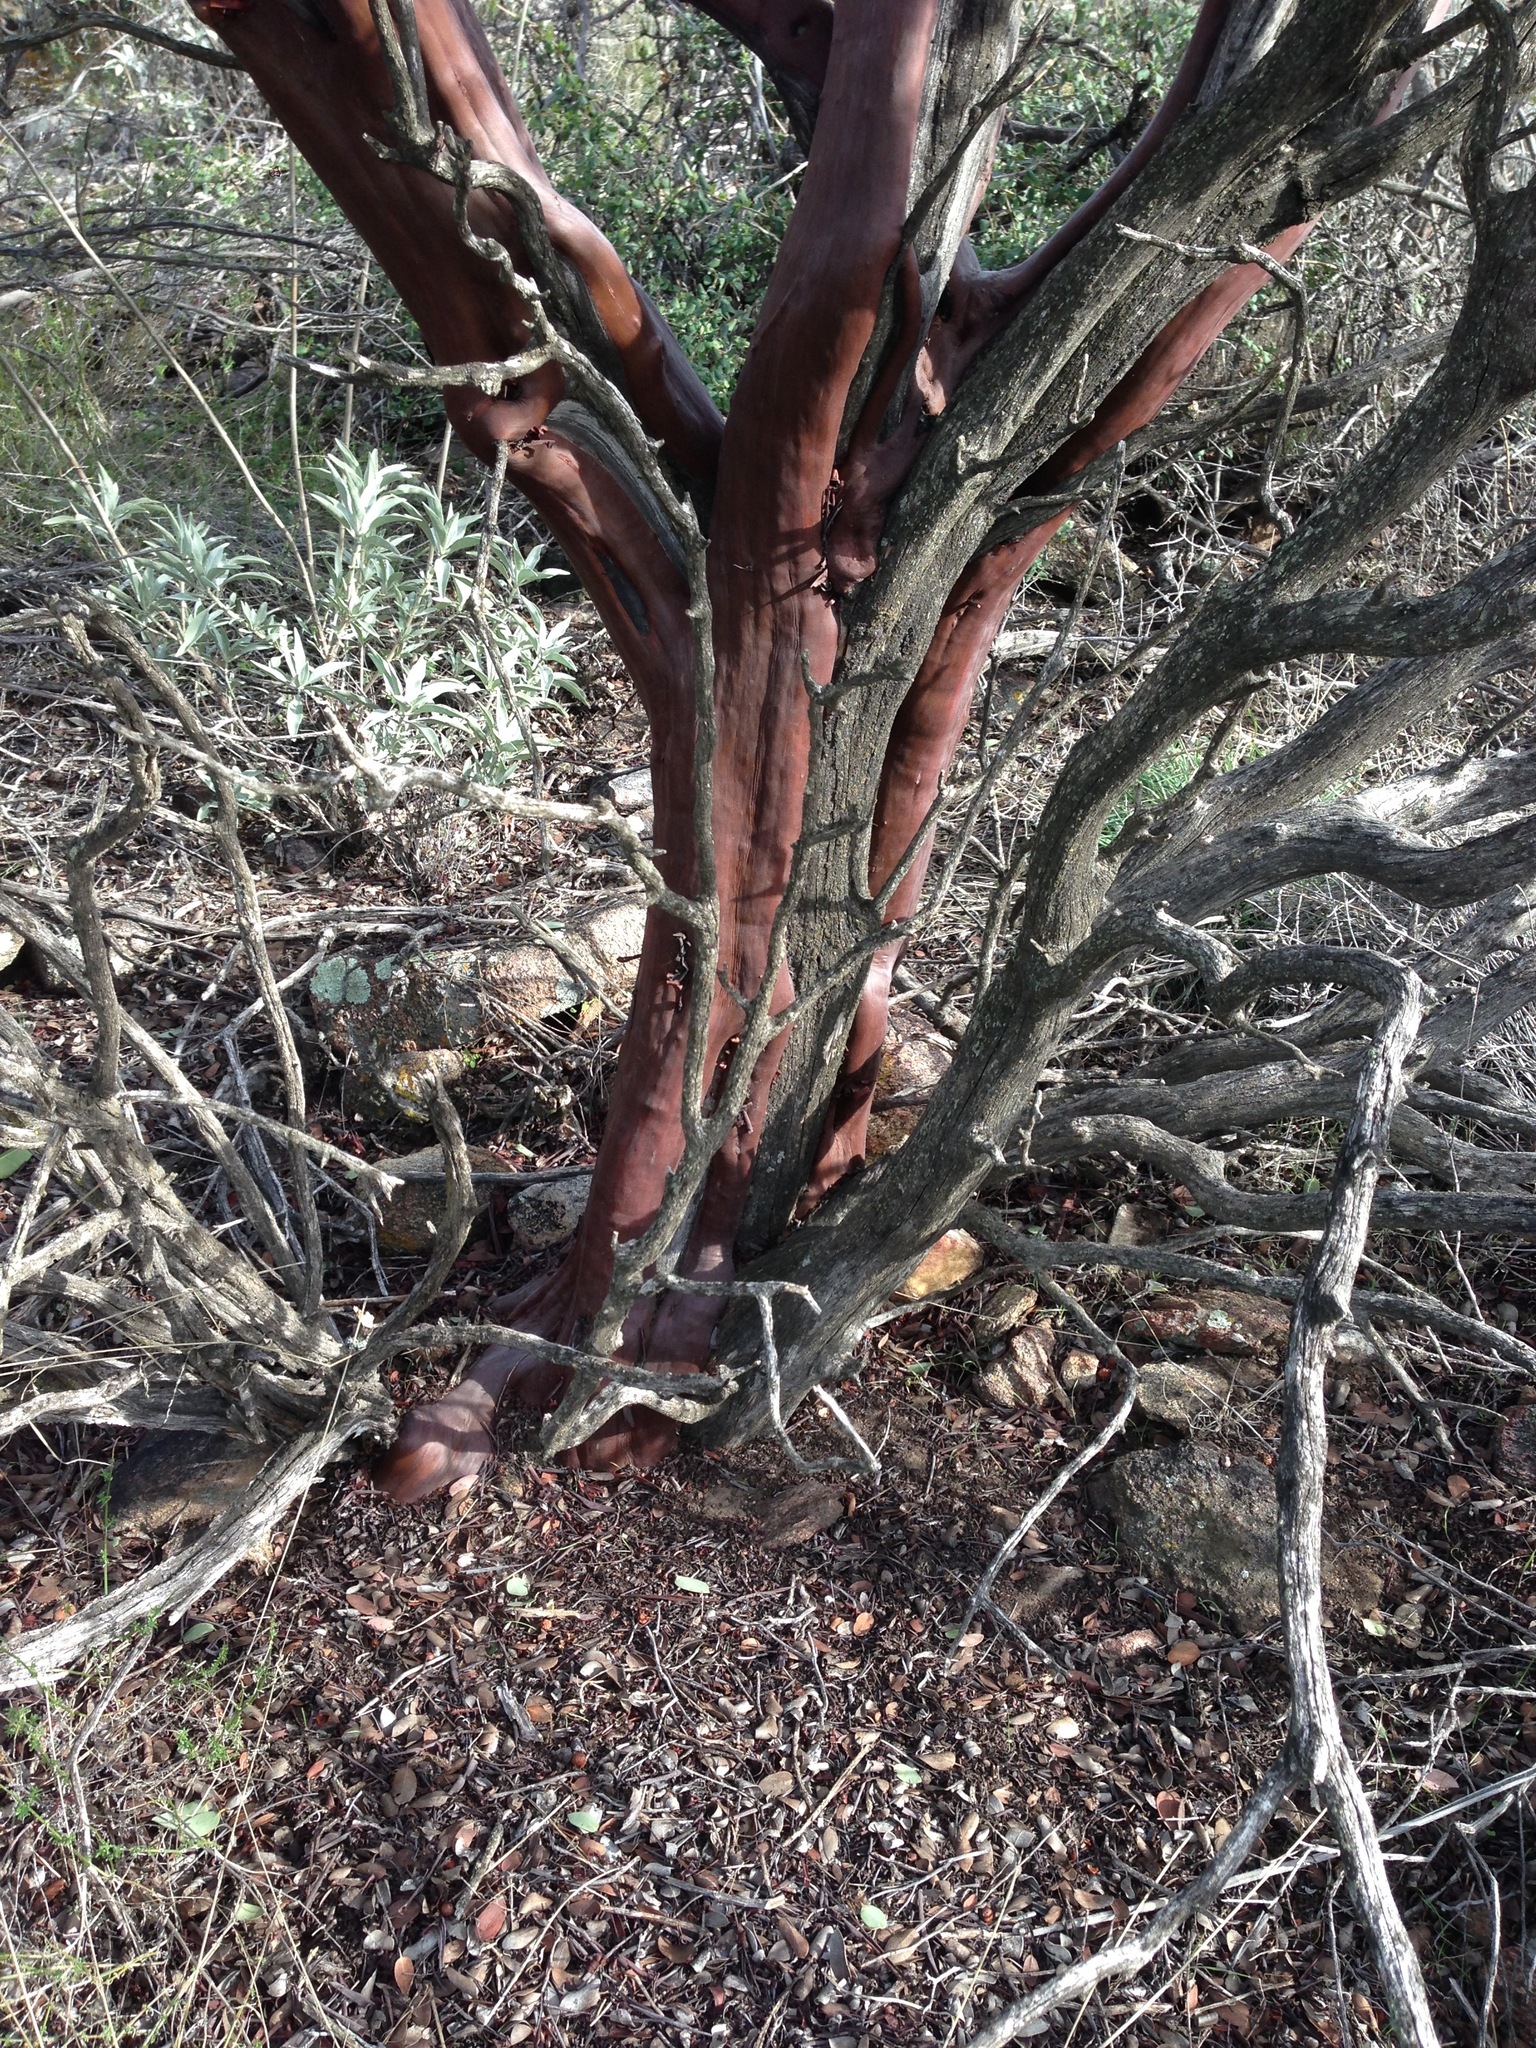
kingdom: Plantae
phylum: Tracheophyta
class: Magnoliopsida
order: Ericales
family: Ericaceae
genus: Arctostaphylos
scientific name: Arctostaphylos glauca
